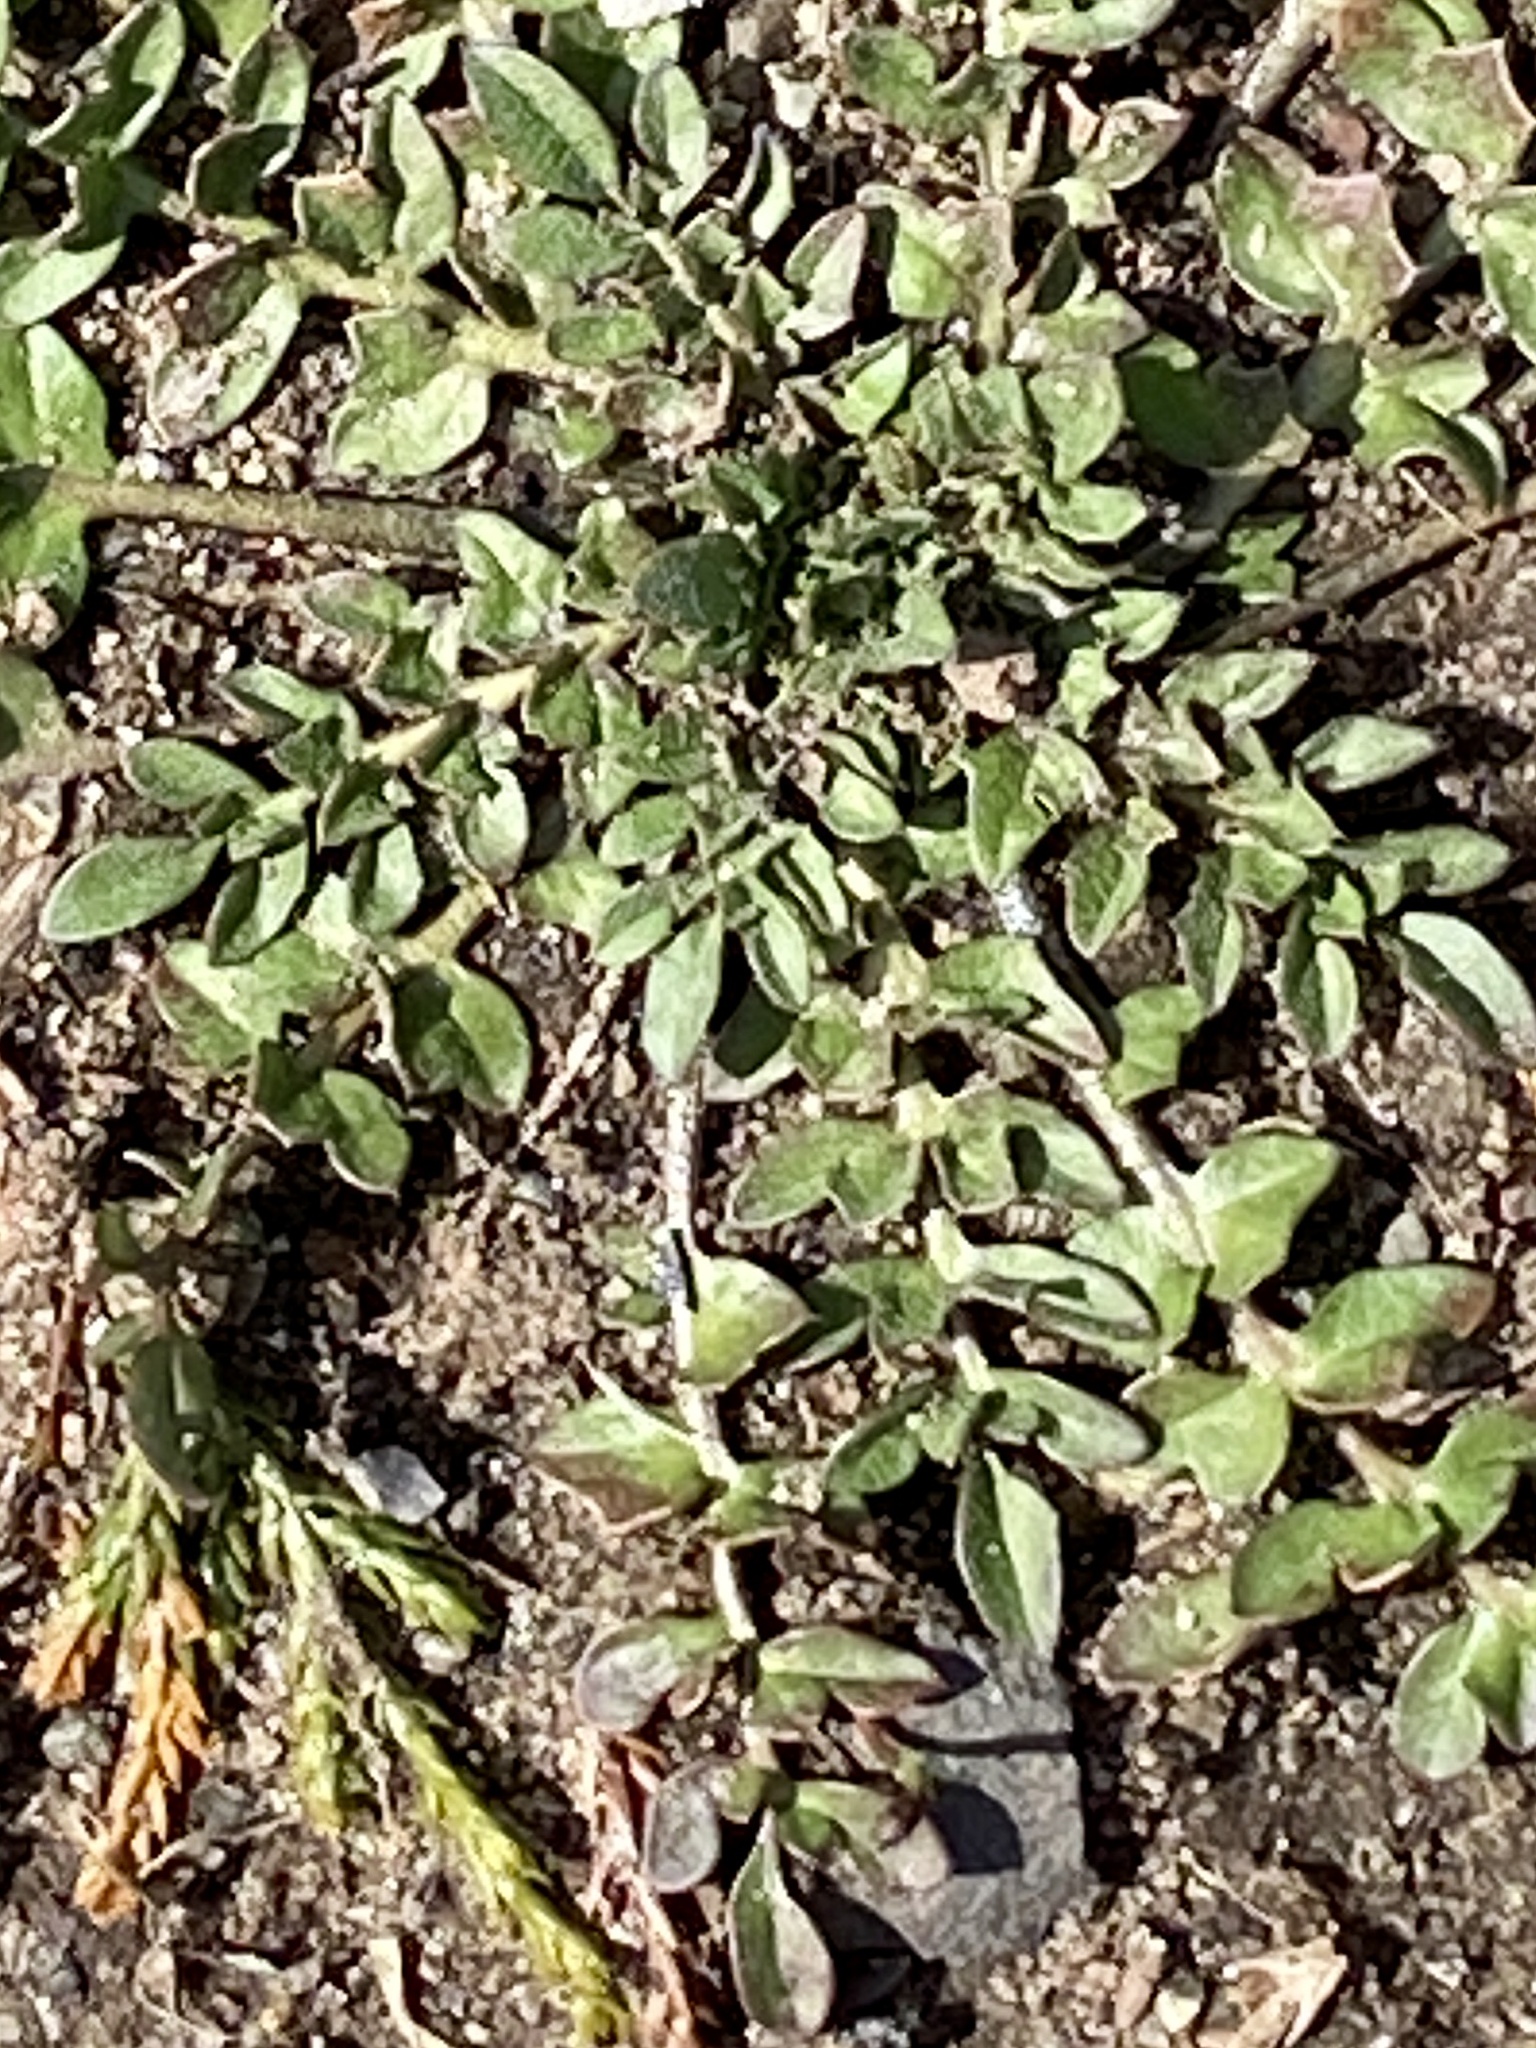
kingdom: Plantae
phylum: Tracheophyta
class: Magnoliopsida
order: Brassicales
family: Brassicaceae
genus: Capsella
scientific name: Capsella bursa-pastoris
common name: Shepherd's purse
